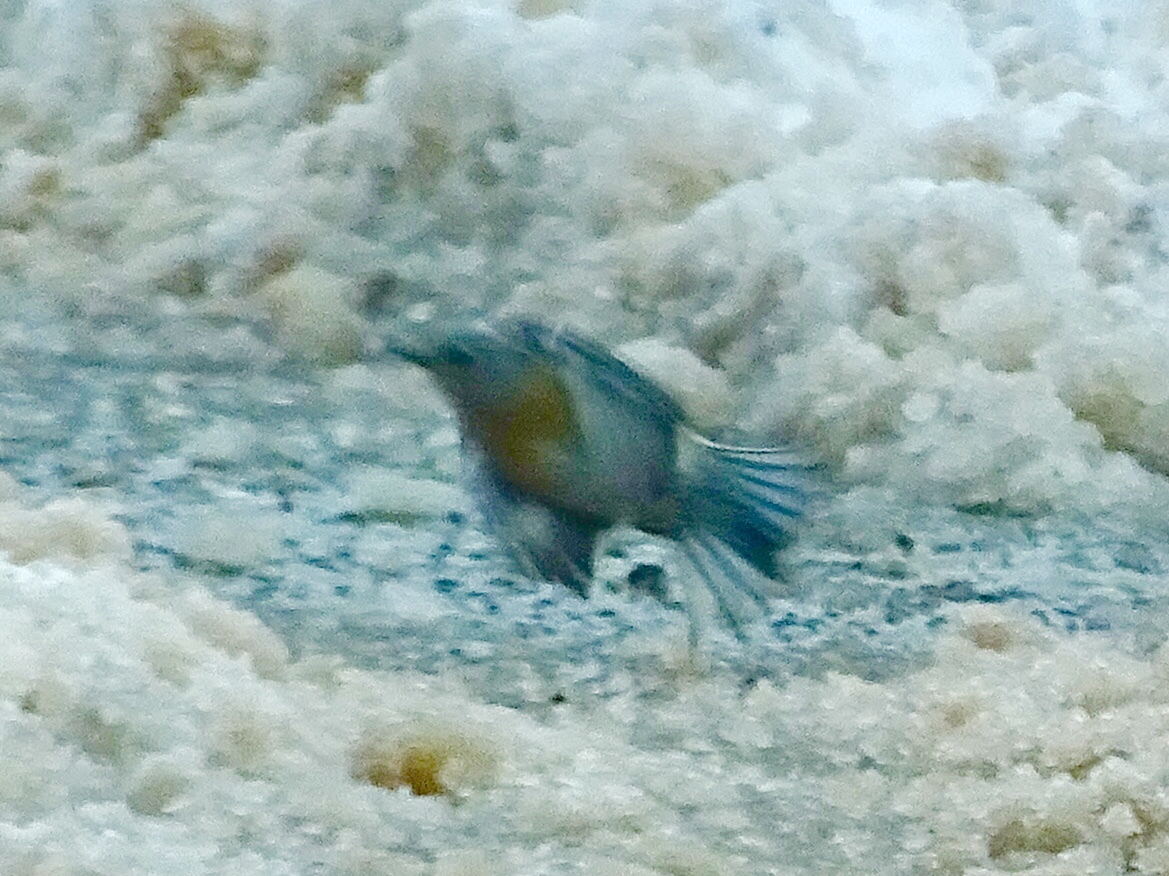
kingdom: Animalia
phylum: Chordata
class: Aves
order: Passeriformes
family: Turdidae
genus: Sialia
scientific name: Sialia mexicana
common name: Western bluebird
